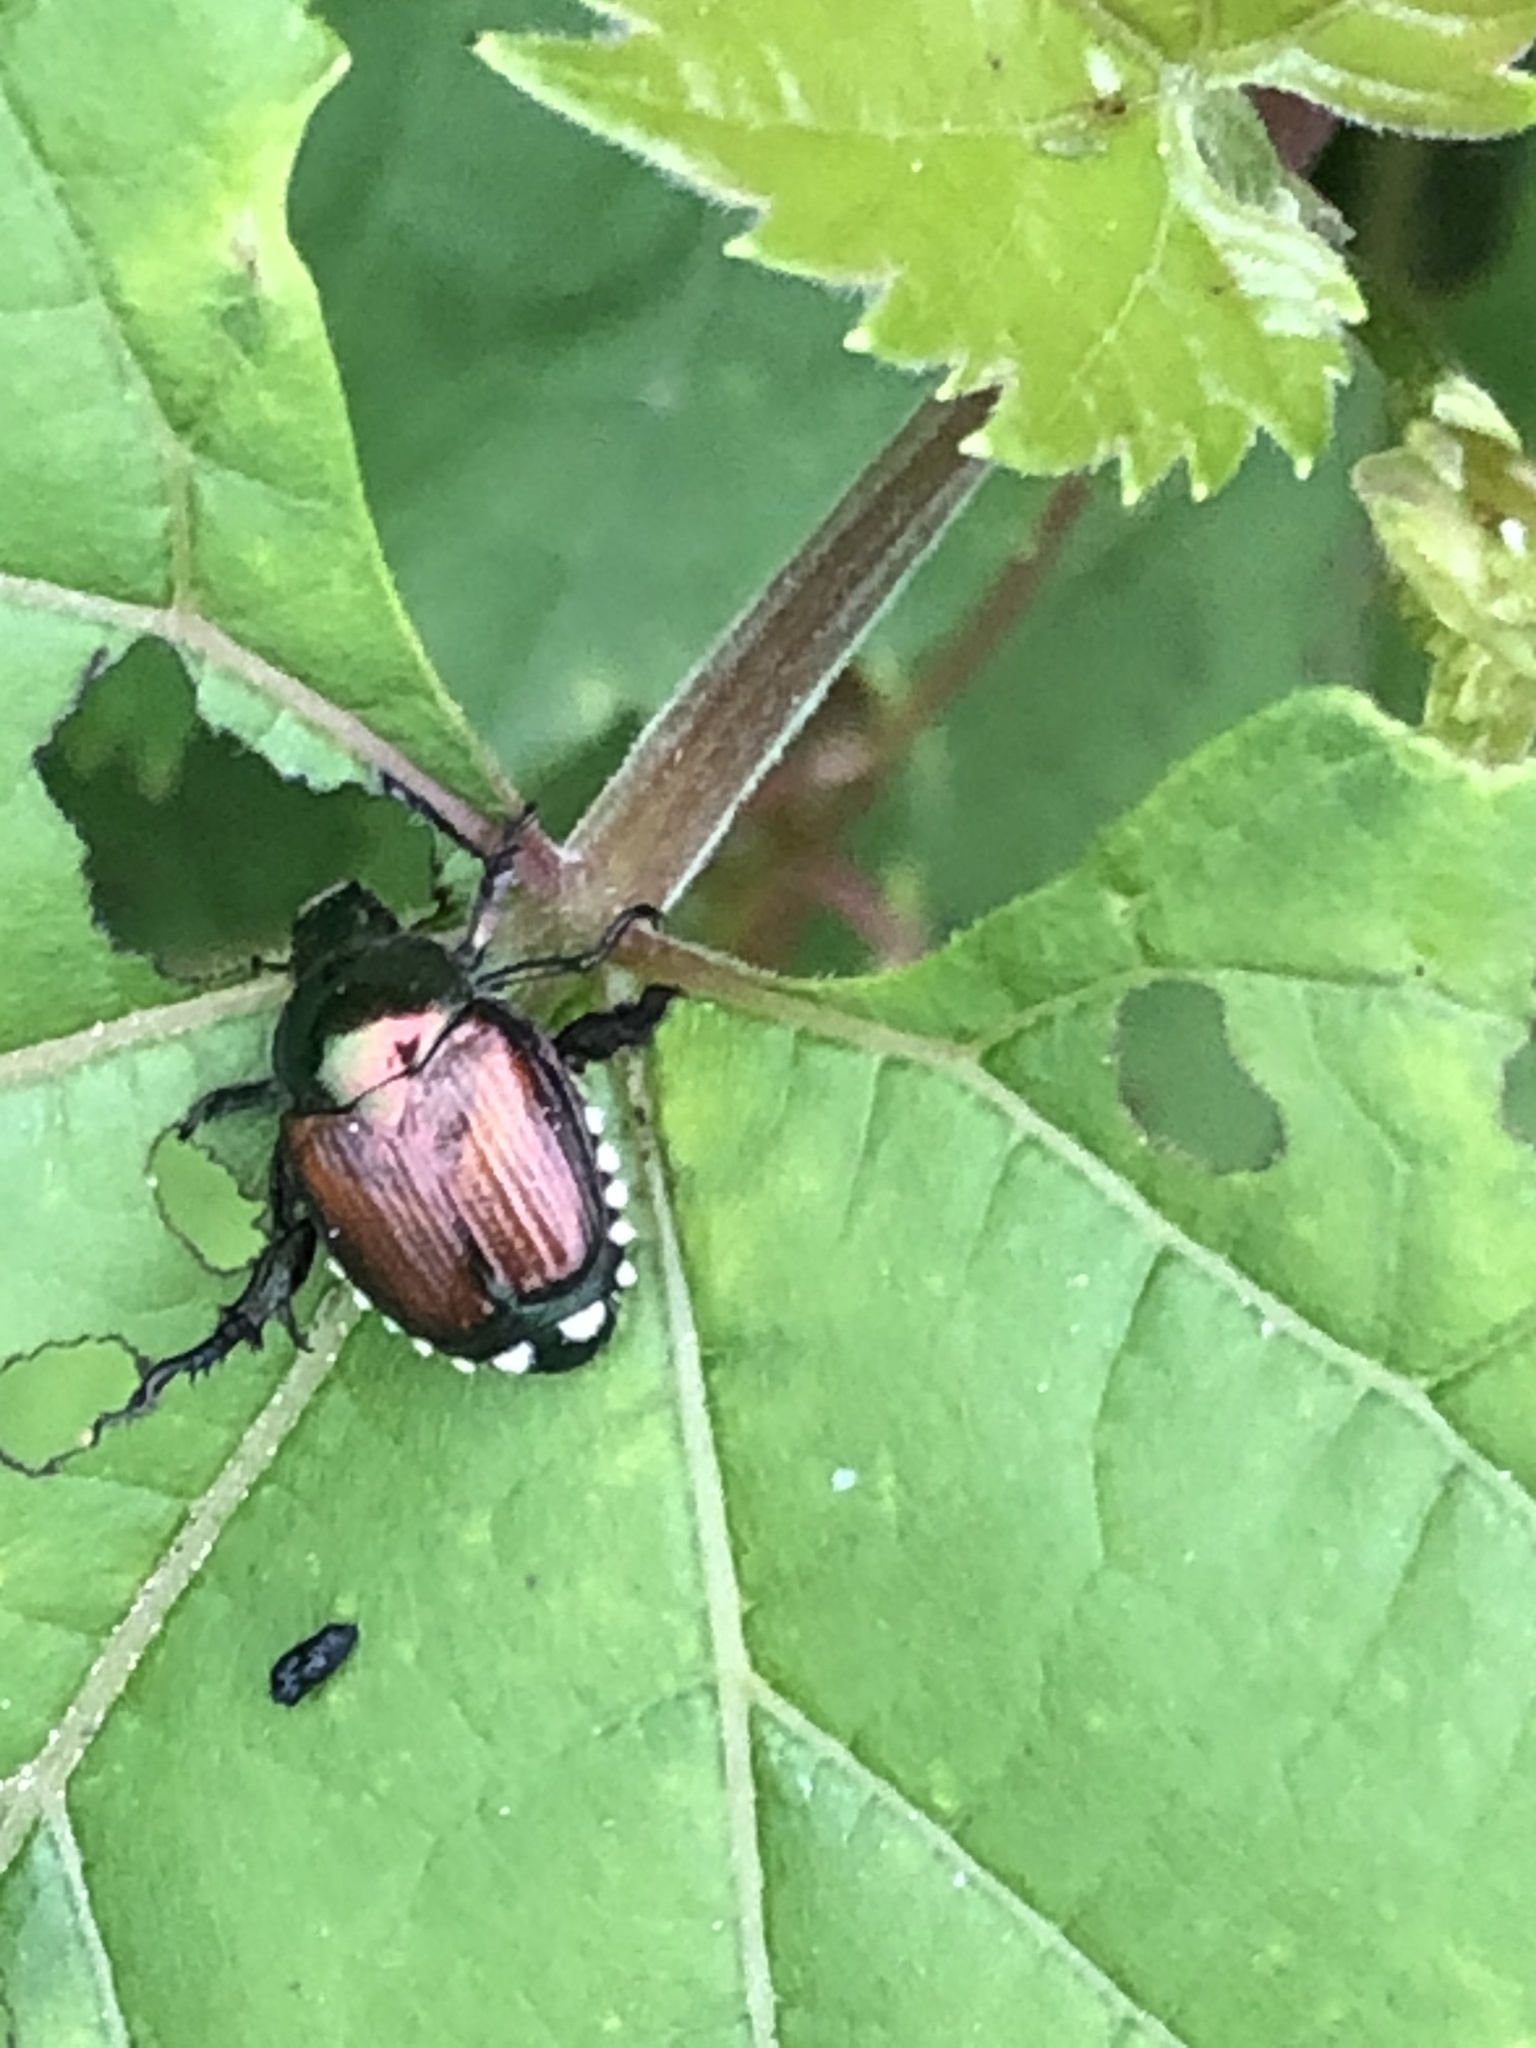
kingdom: Animalia
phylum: Arthropoda
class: Insecta
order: Coleoptera
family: Scarabaeidae
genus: Popillia
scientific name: Popillia japonica
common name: Japanese beetle
